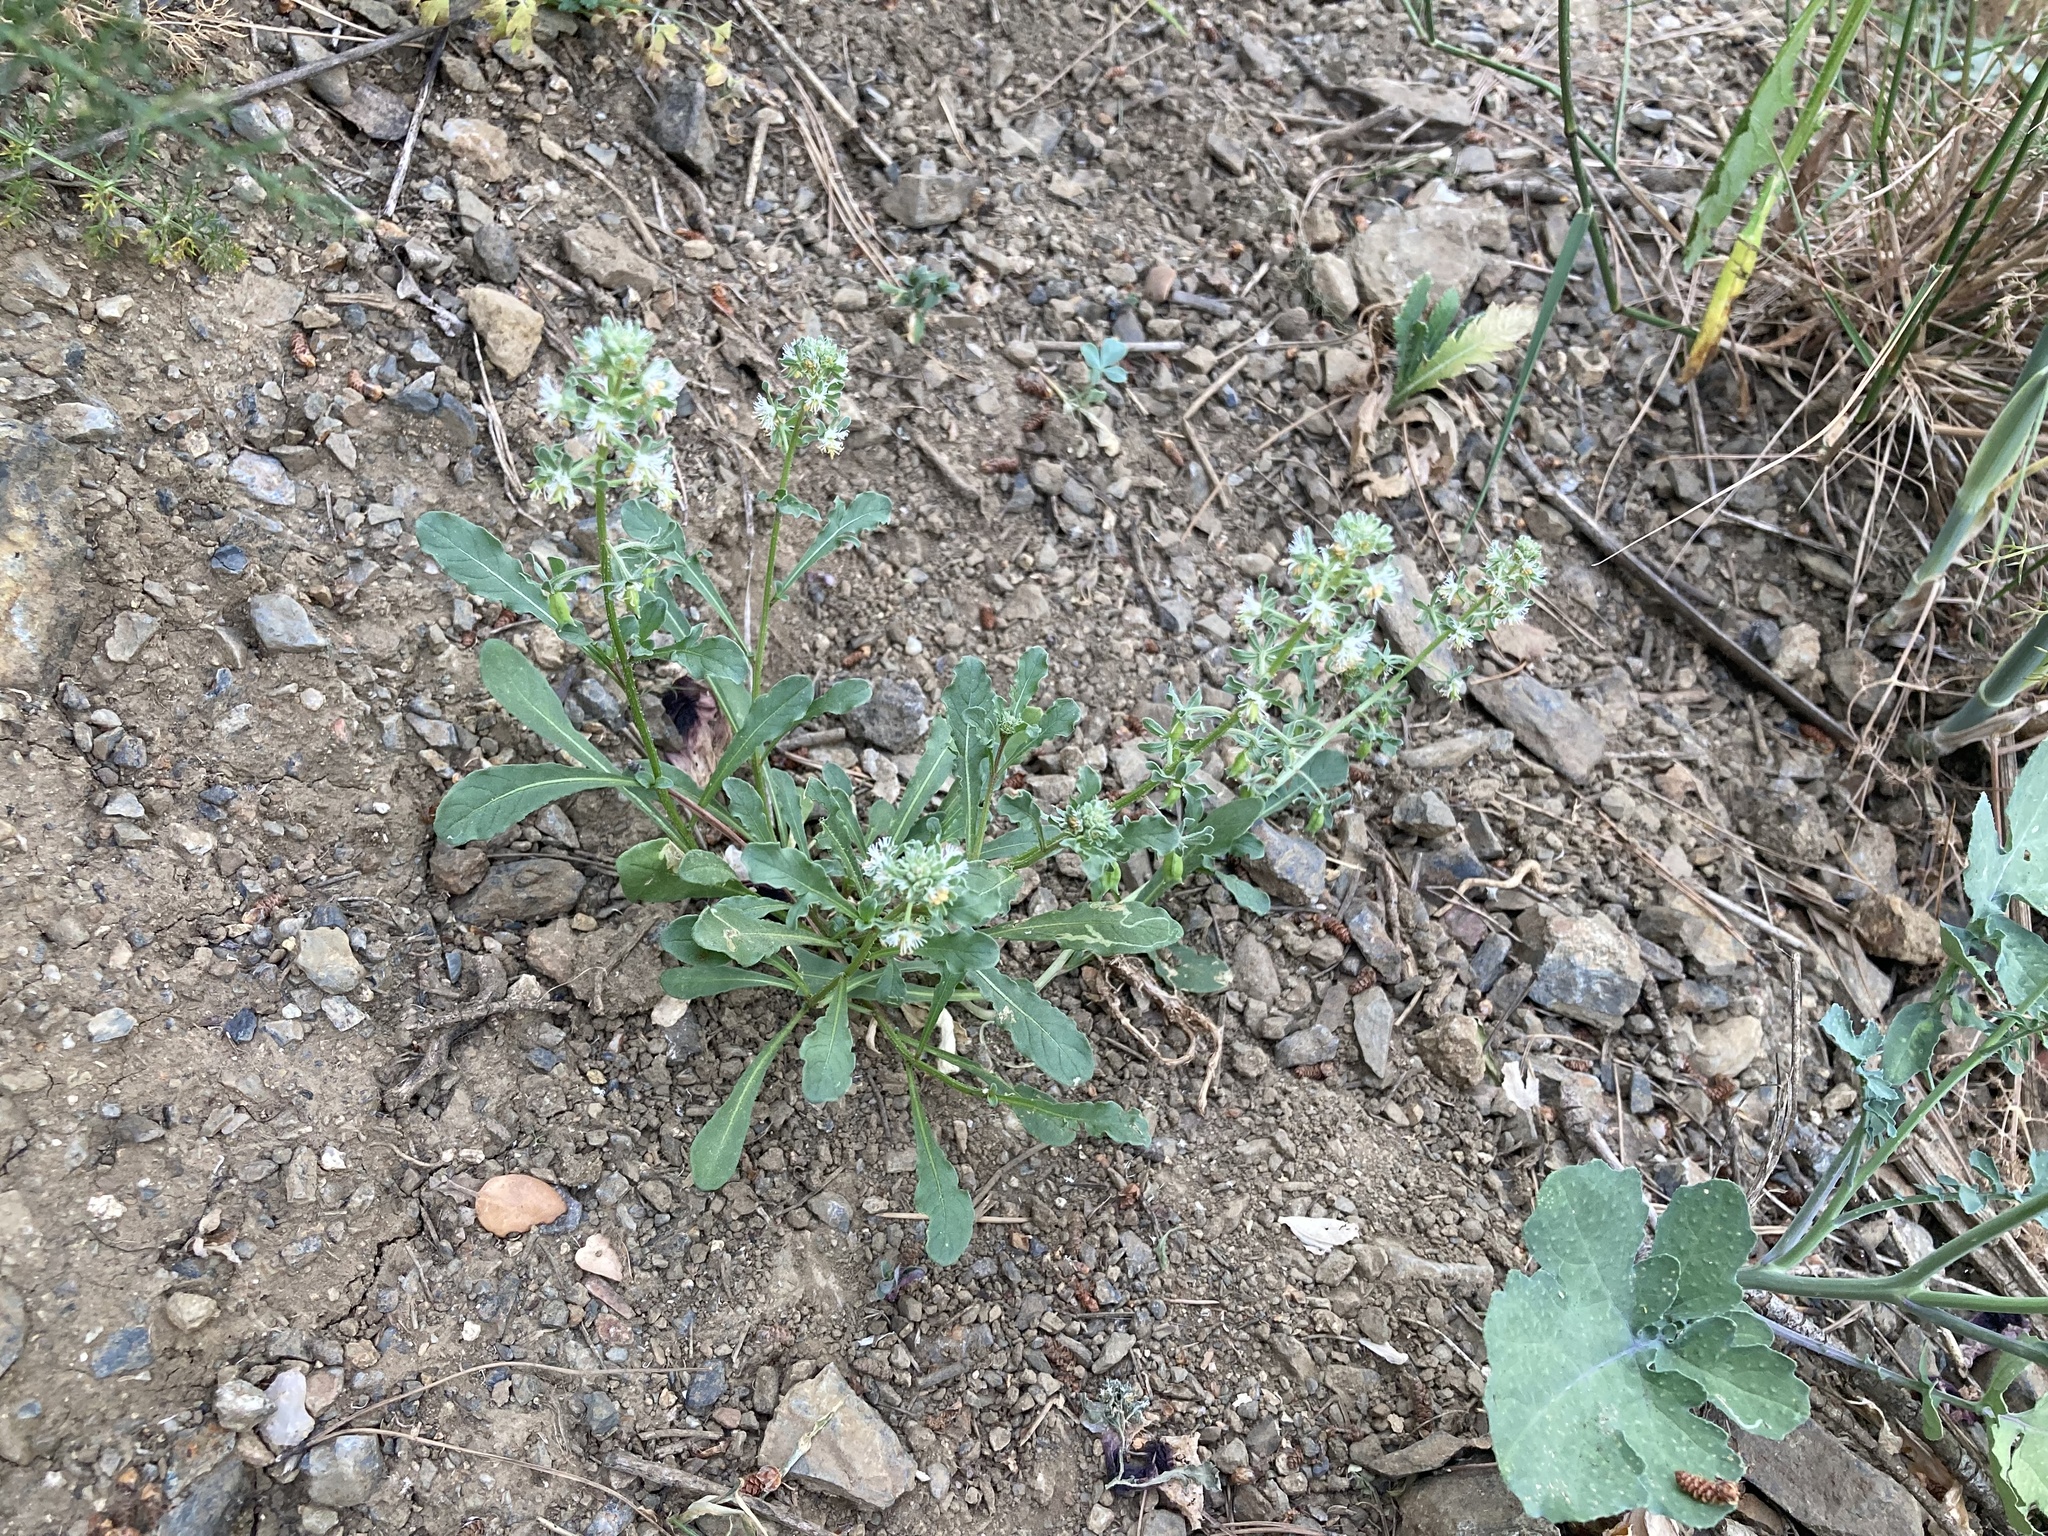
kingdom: Plantae
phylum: Tracheophyta
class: Magnoliopsida
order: Brassicales
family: Resedaceae
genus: Reseda
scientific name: Reseda phyteuma
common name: Corn mignonette
